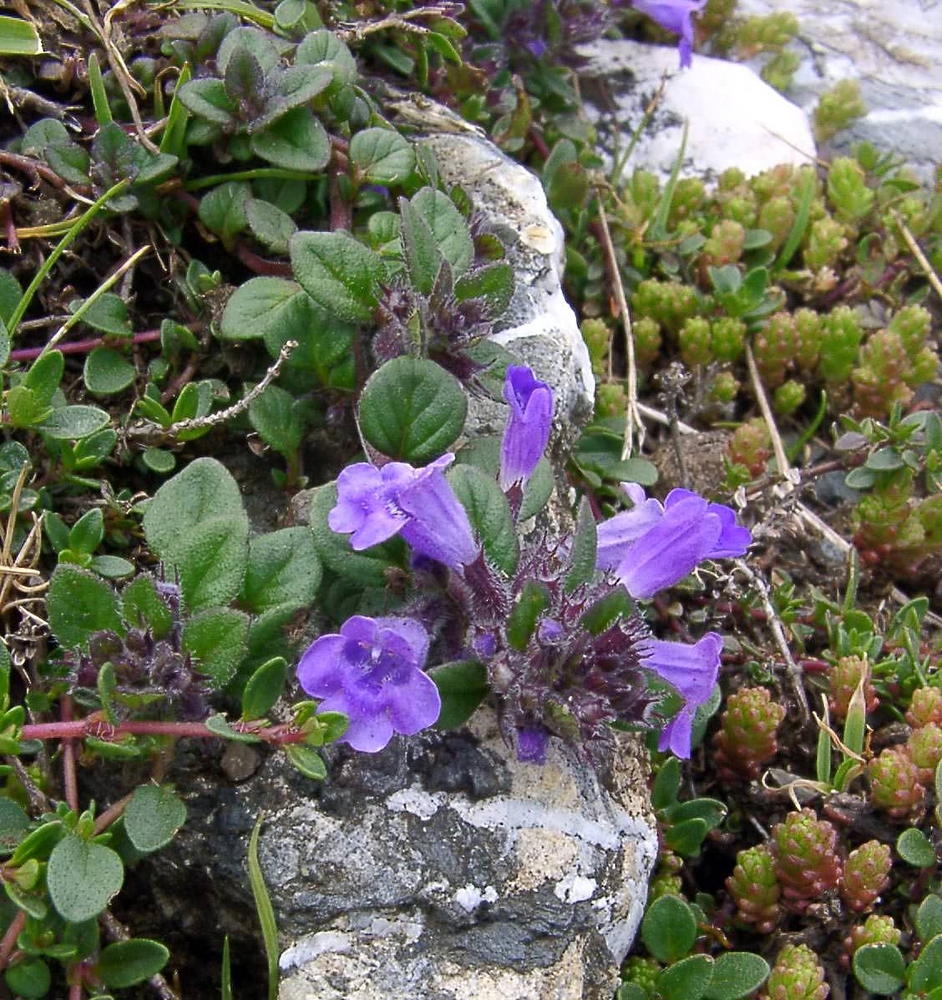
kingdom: Plantae
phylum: Tracheophyta
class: Magnoliopsida
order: Lamiales
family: Lamiaceae
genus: Clinopodium
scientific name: Clinopodium alpinum
